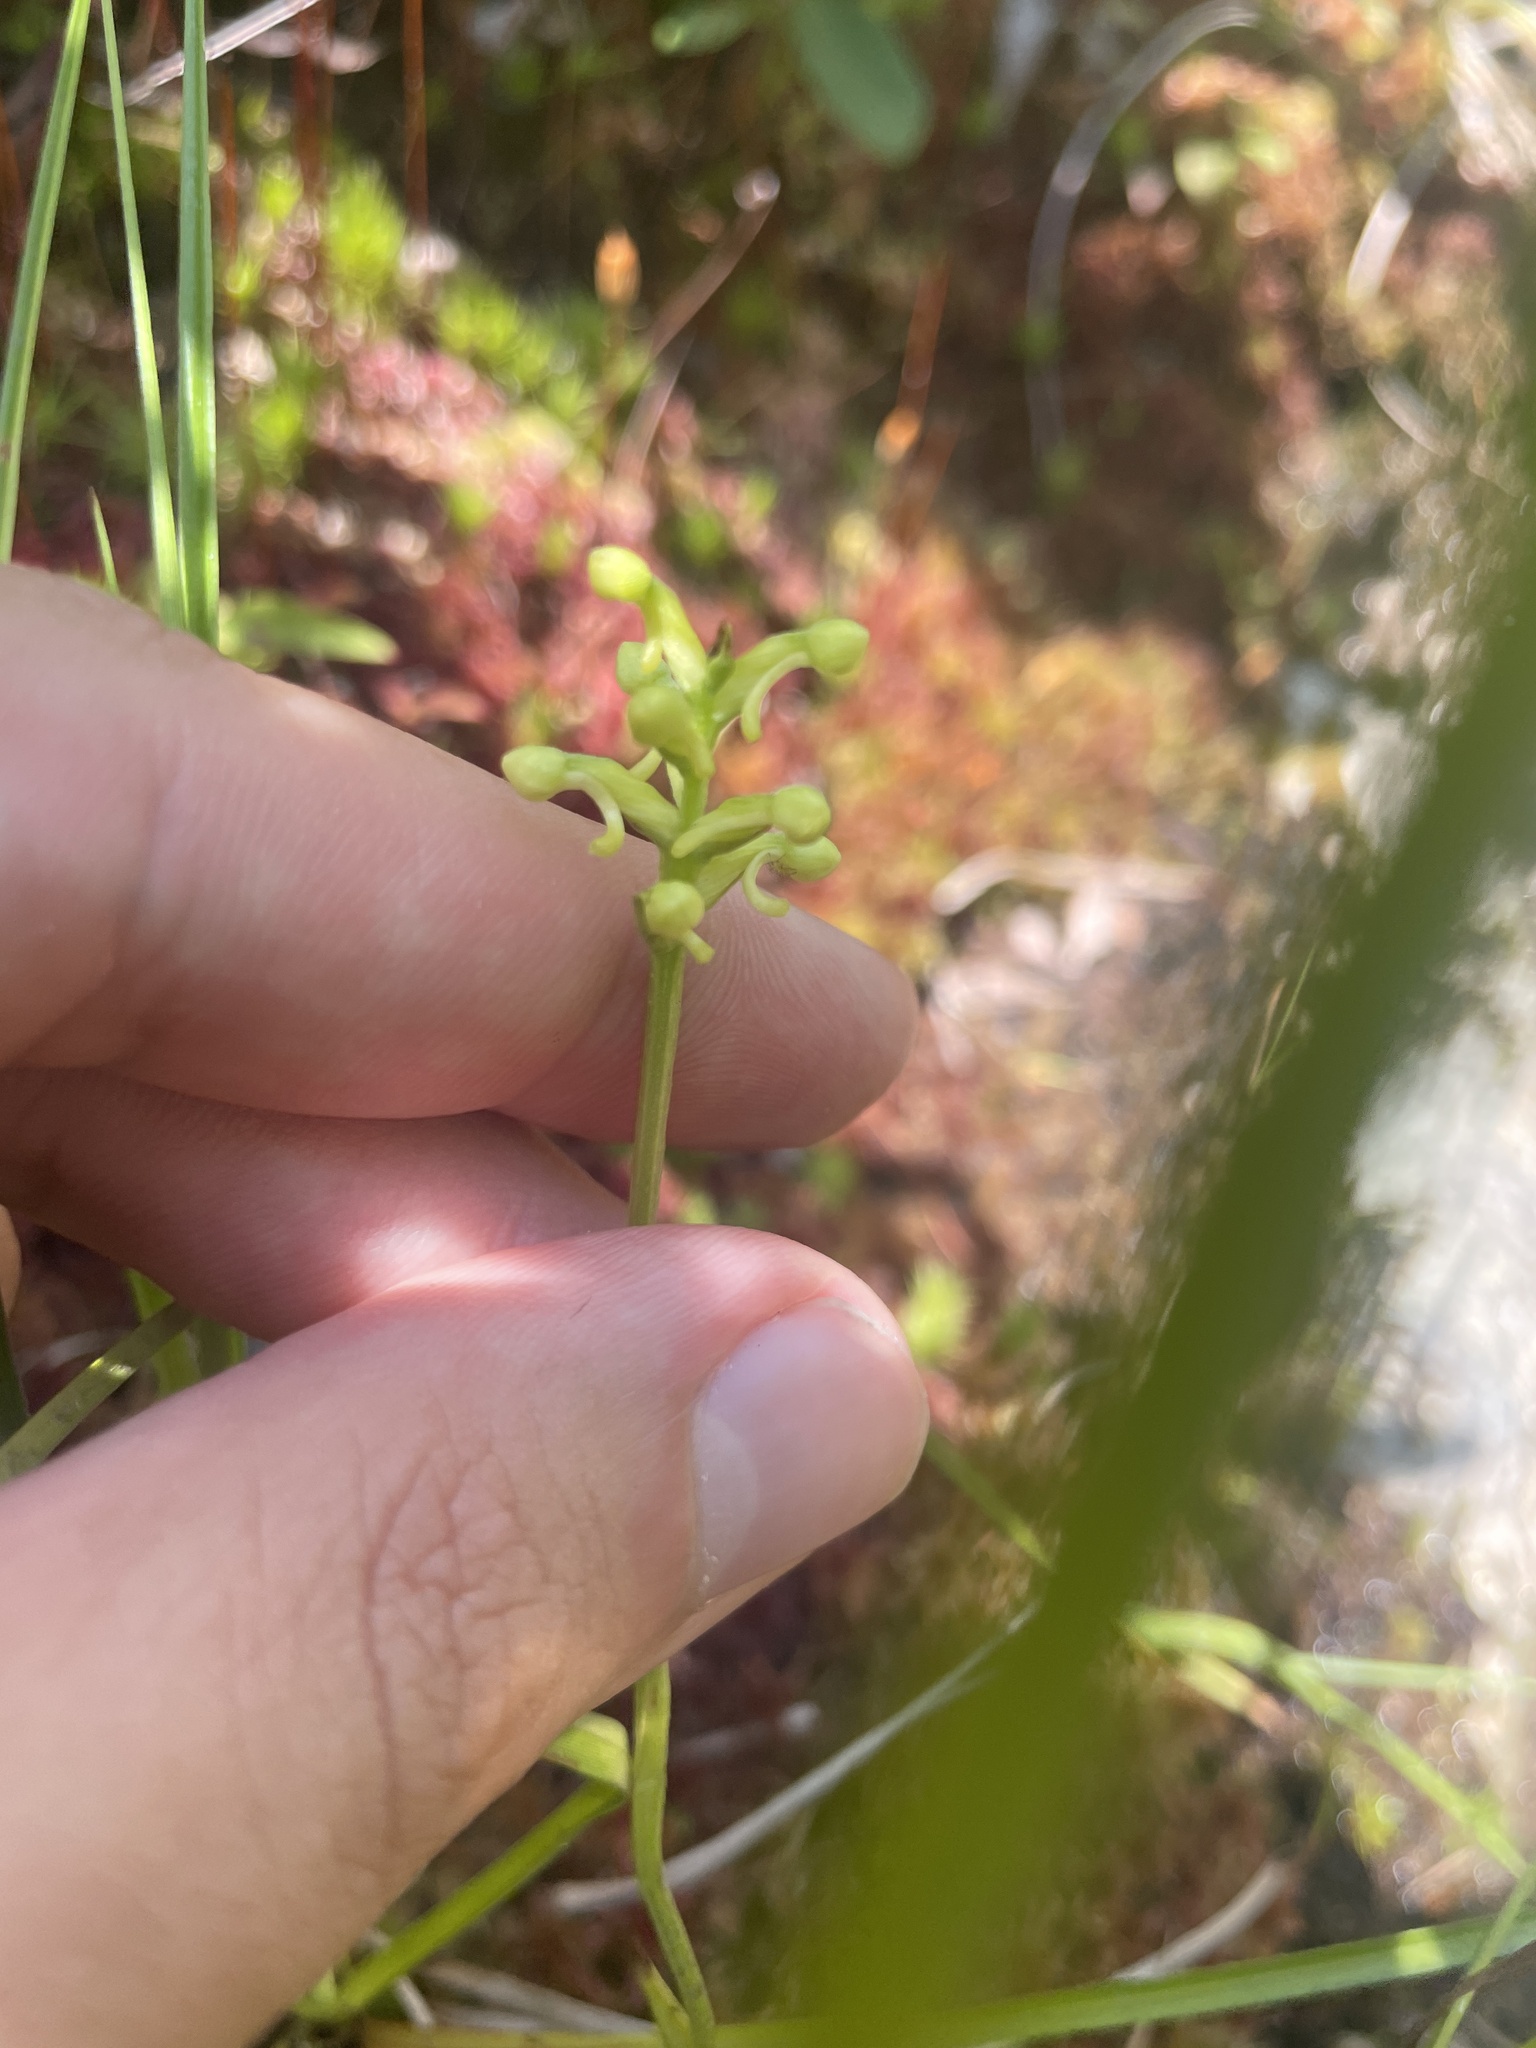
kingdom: Plantae
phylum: Tracheophyta
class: Liliopsida
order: Asparagales
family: Orchidaceae
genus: Platanthera
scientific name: Platanthera clavellata
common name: Club-spur orchid
